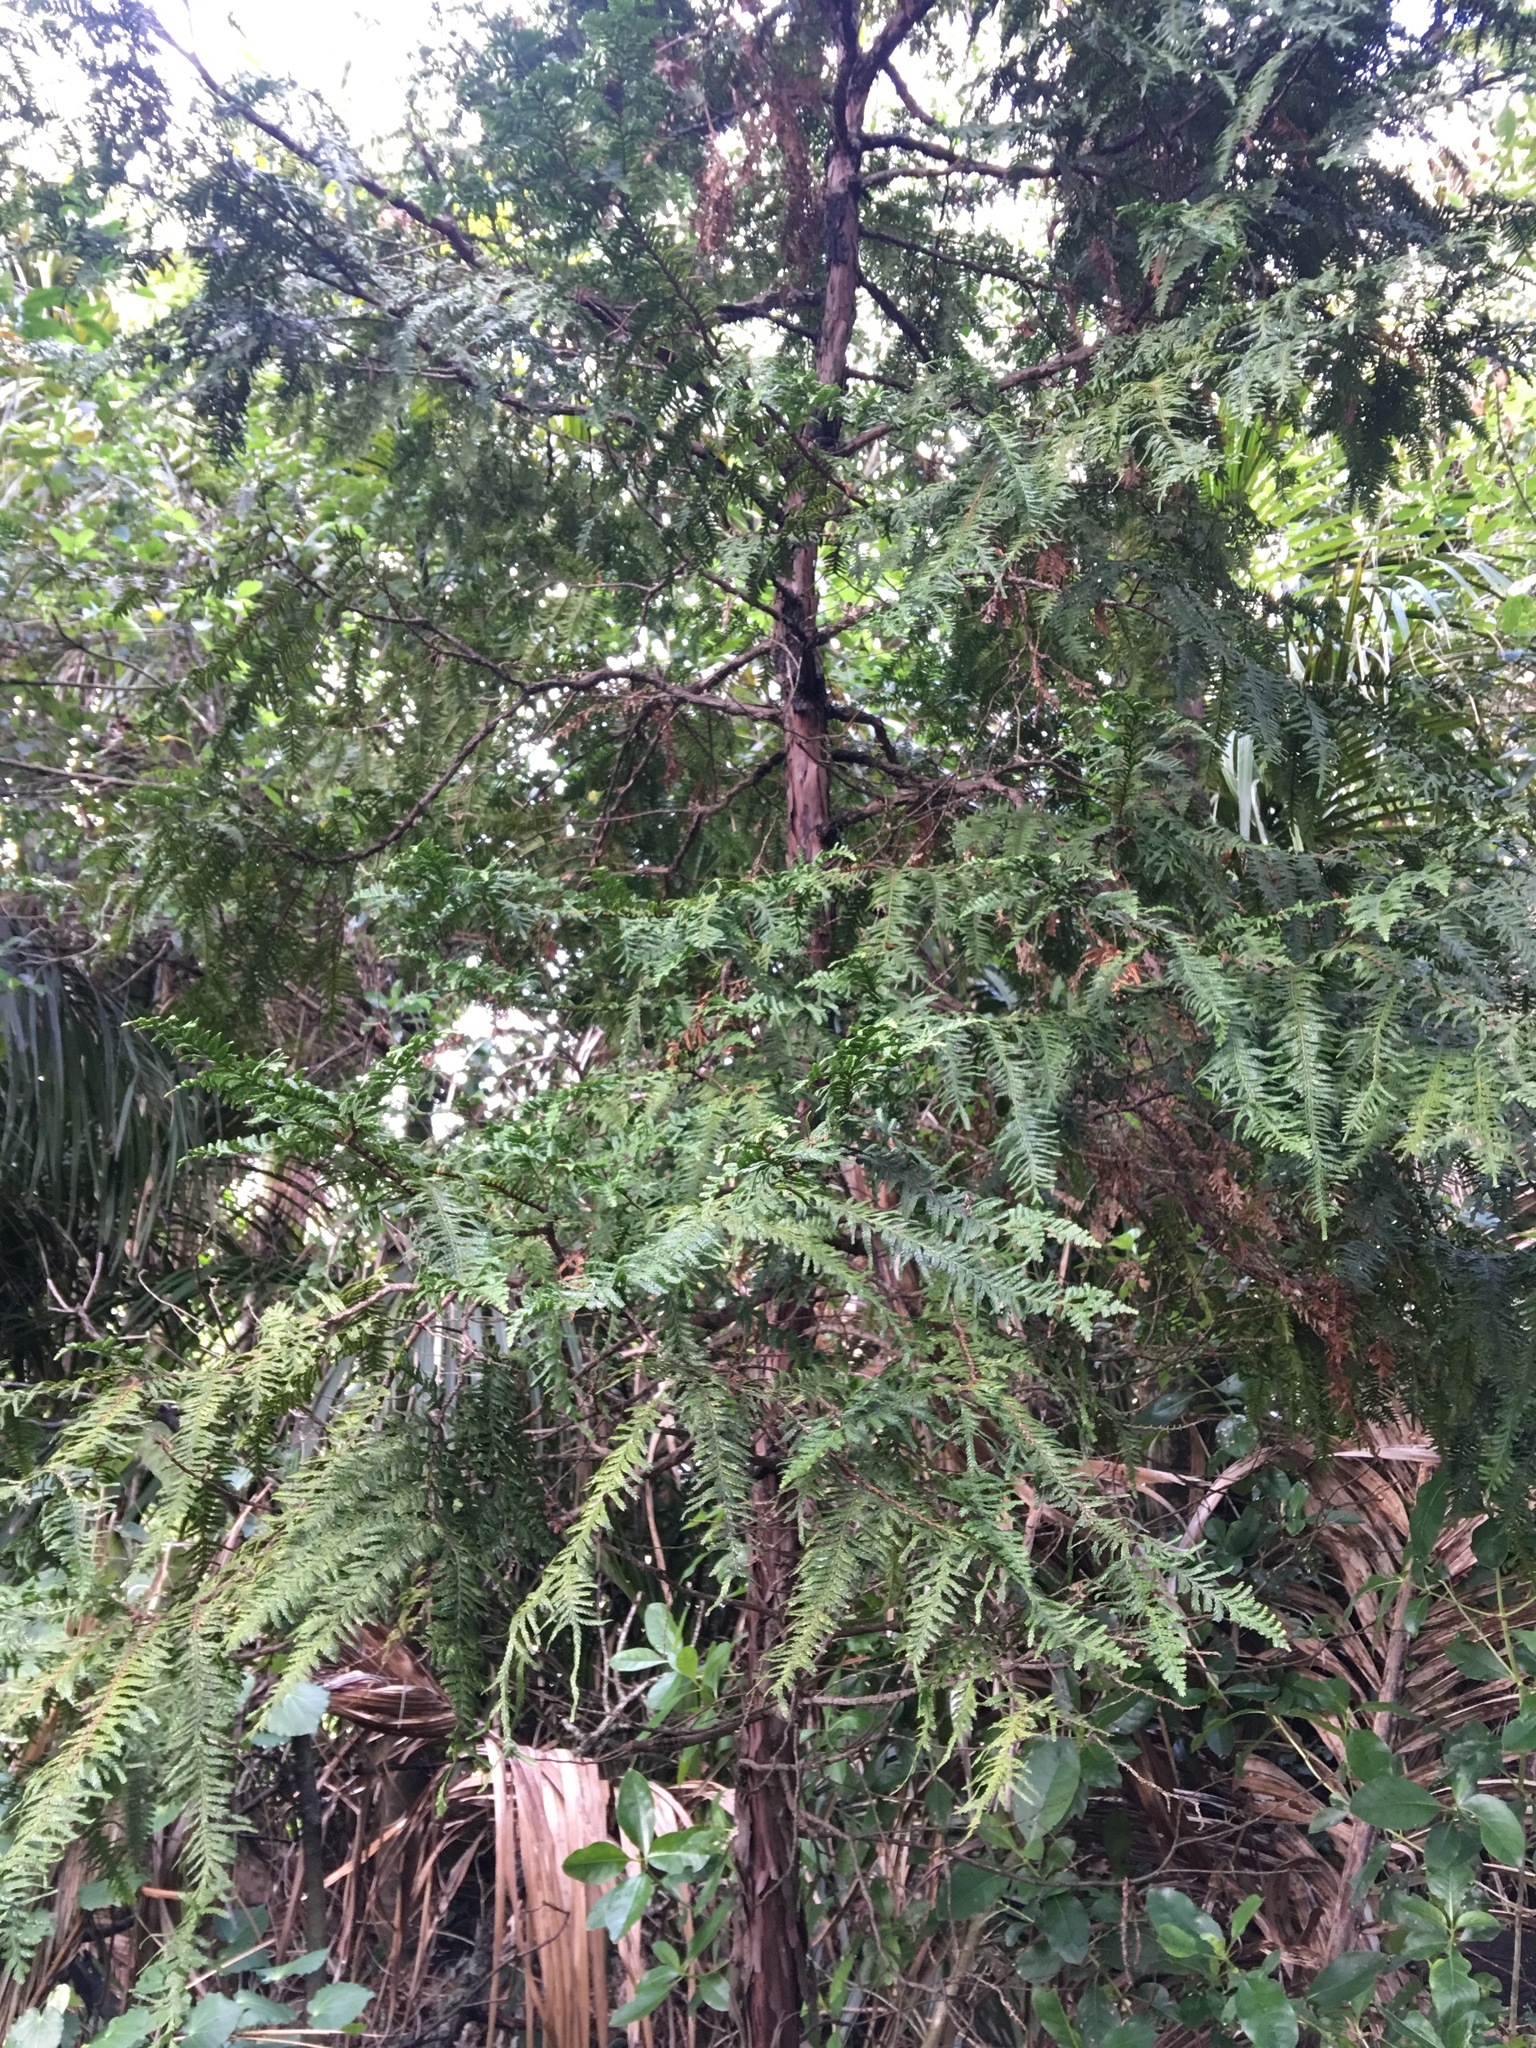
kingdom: Plantae
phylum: Tracheophyta
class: Pinopsida
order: Pinales
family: Cupressaceae
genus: Libocedrus
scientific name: Libocedrus plumosa
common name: New zealand cedar
